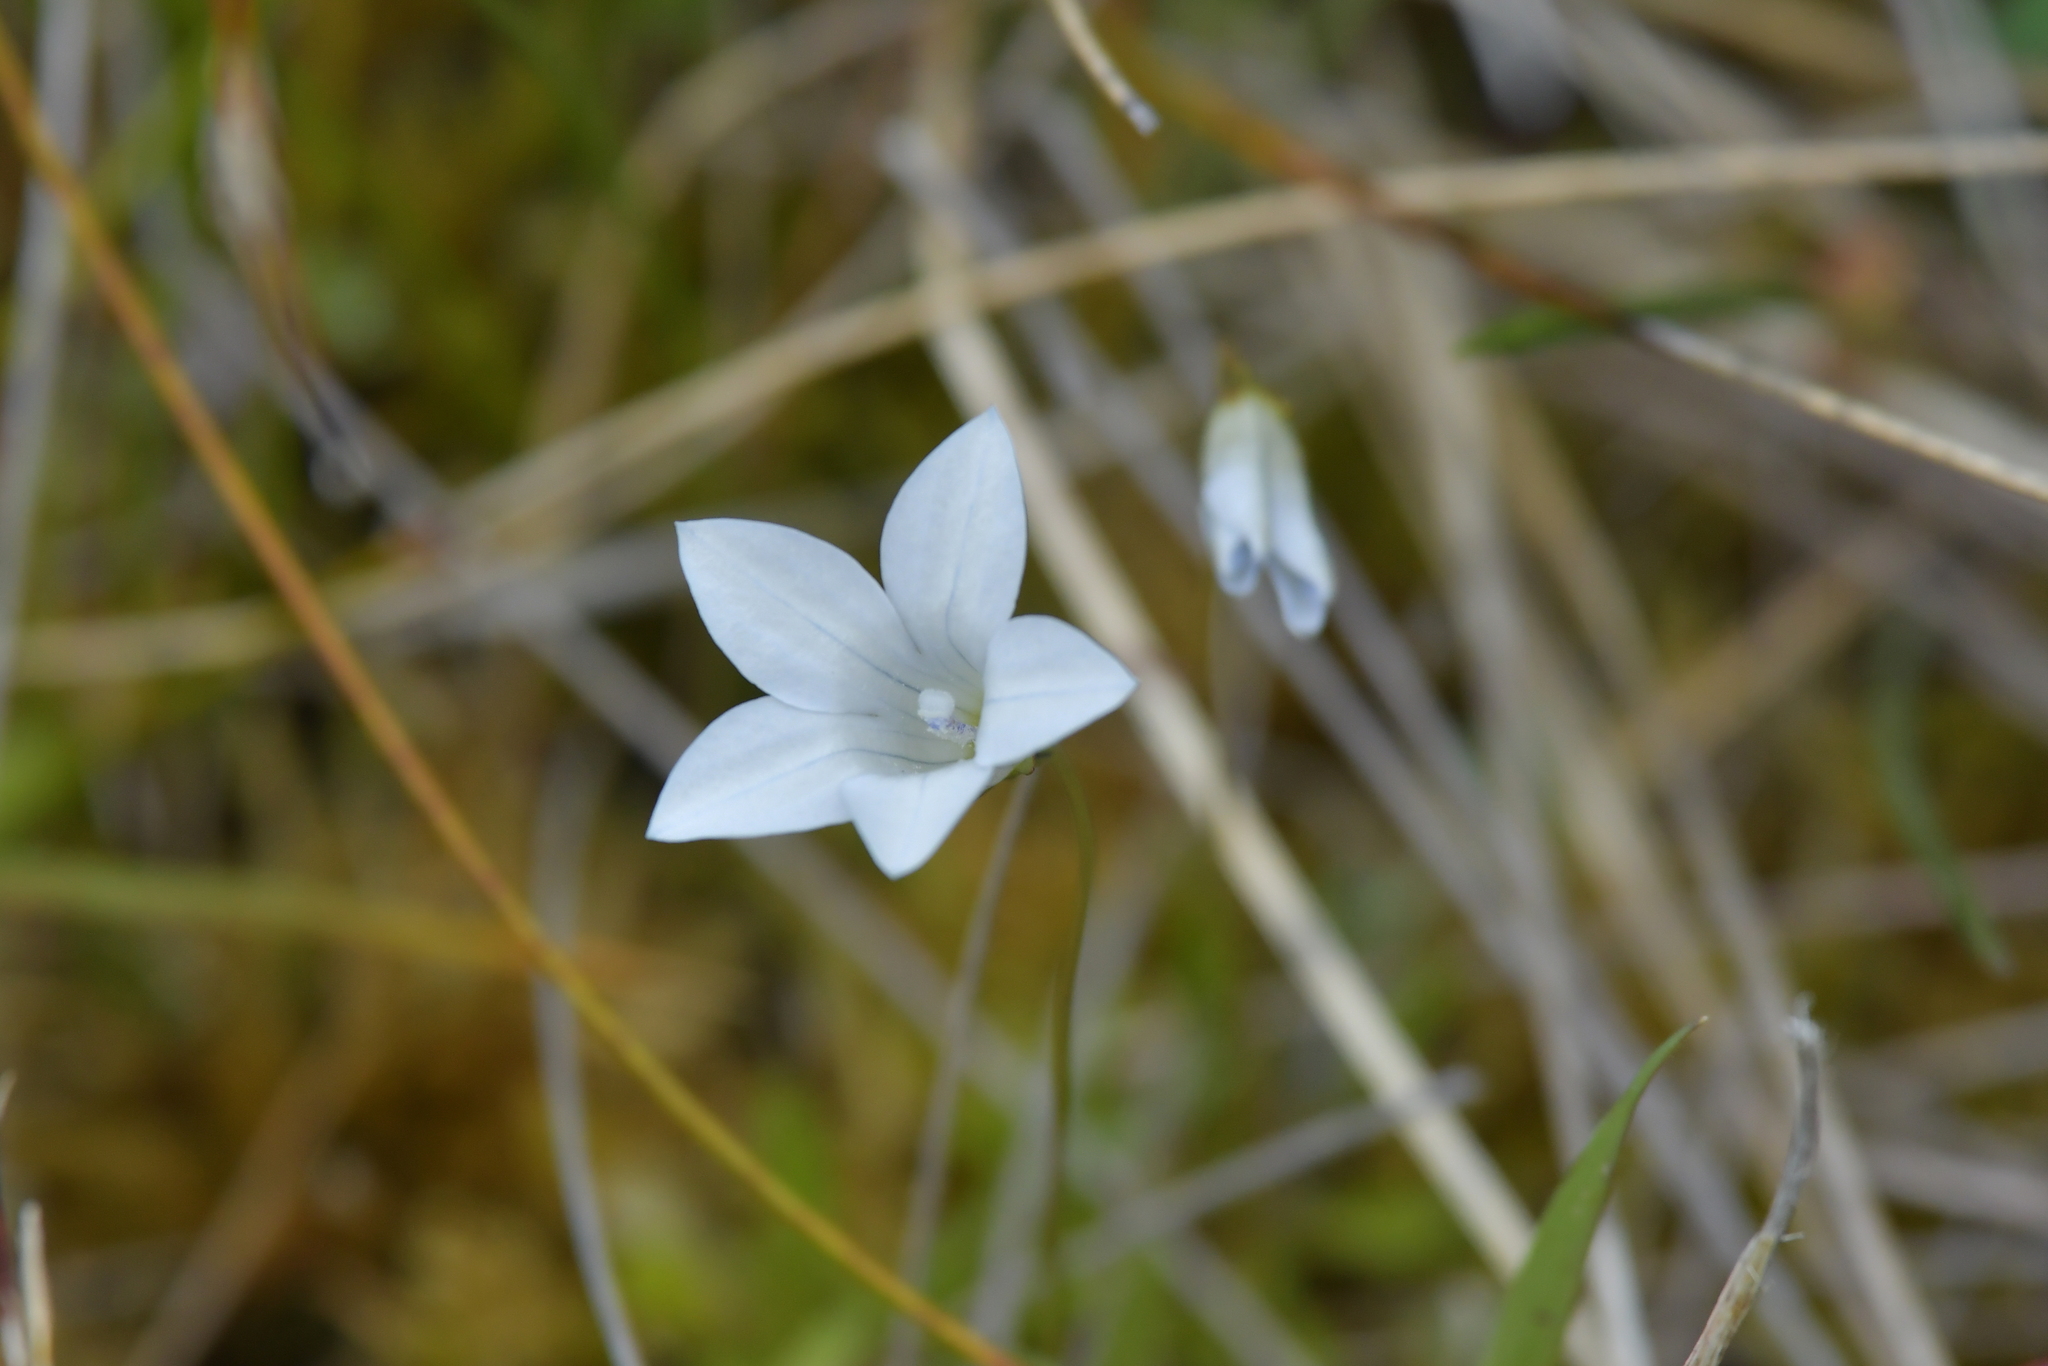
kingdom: Plantae
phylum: Tracheophyta
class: Magnoliopsida
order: Asterales
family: Campanulaceae
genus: Wahlenbergia
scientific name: Wahlenbergia albomarginata
